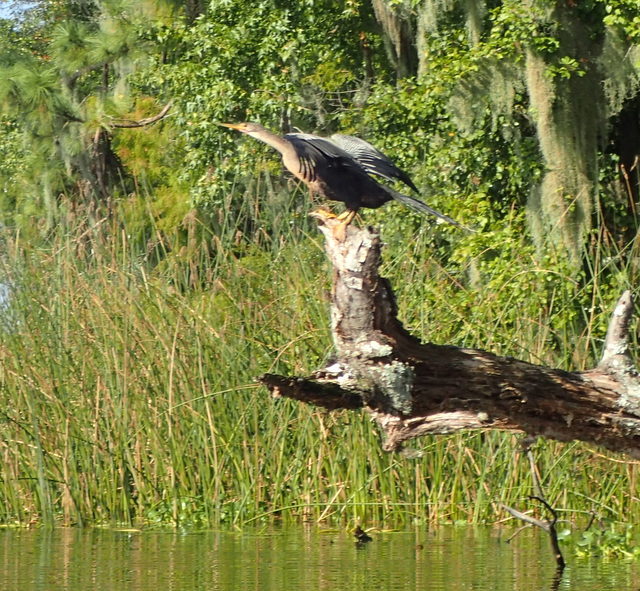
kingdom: Animalia
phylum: Chordata
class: Aves
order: Suliformes
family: Anhingidae
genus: Anhinga
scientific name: Anhinga anhinga
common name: Anhinga
